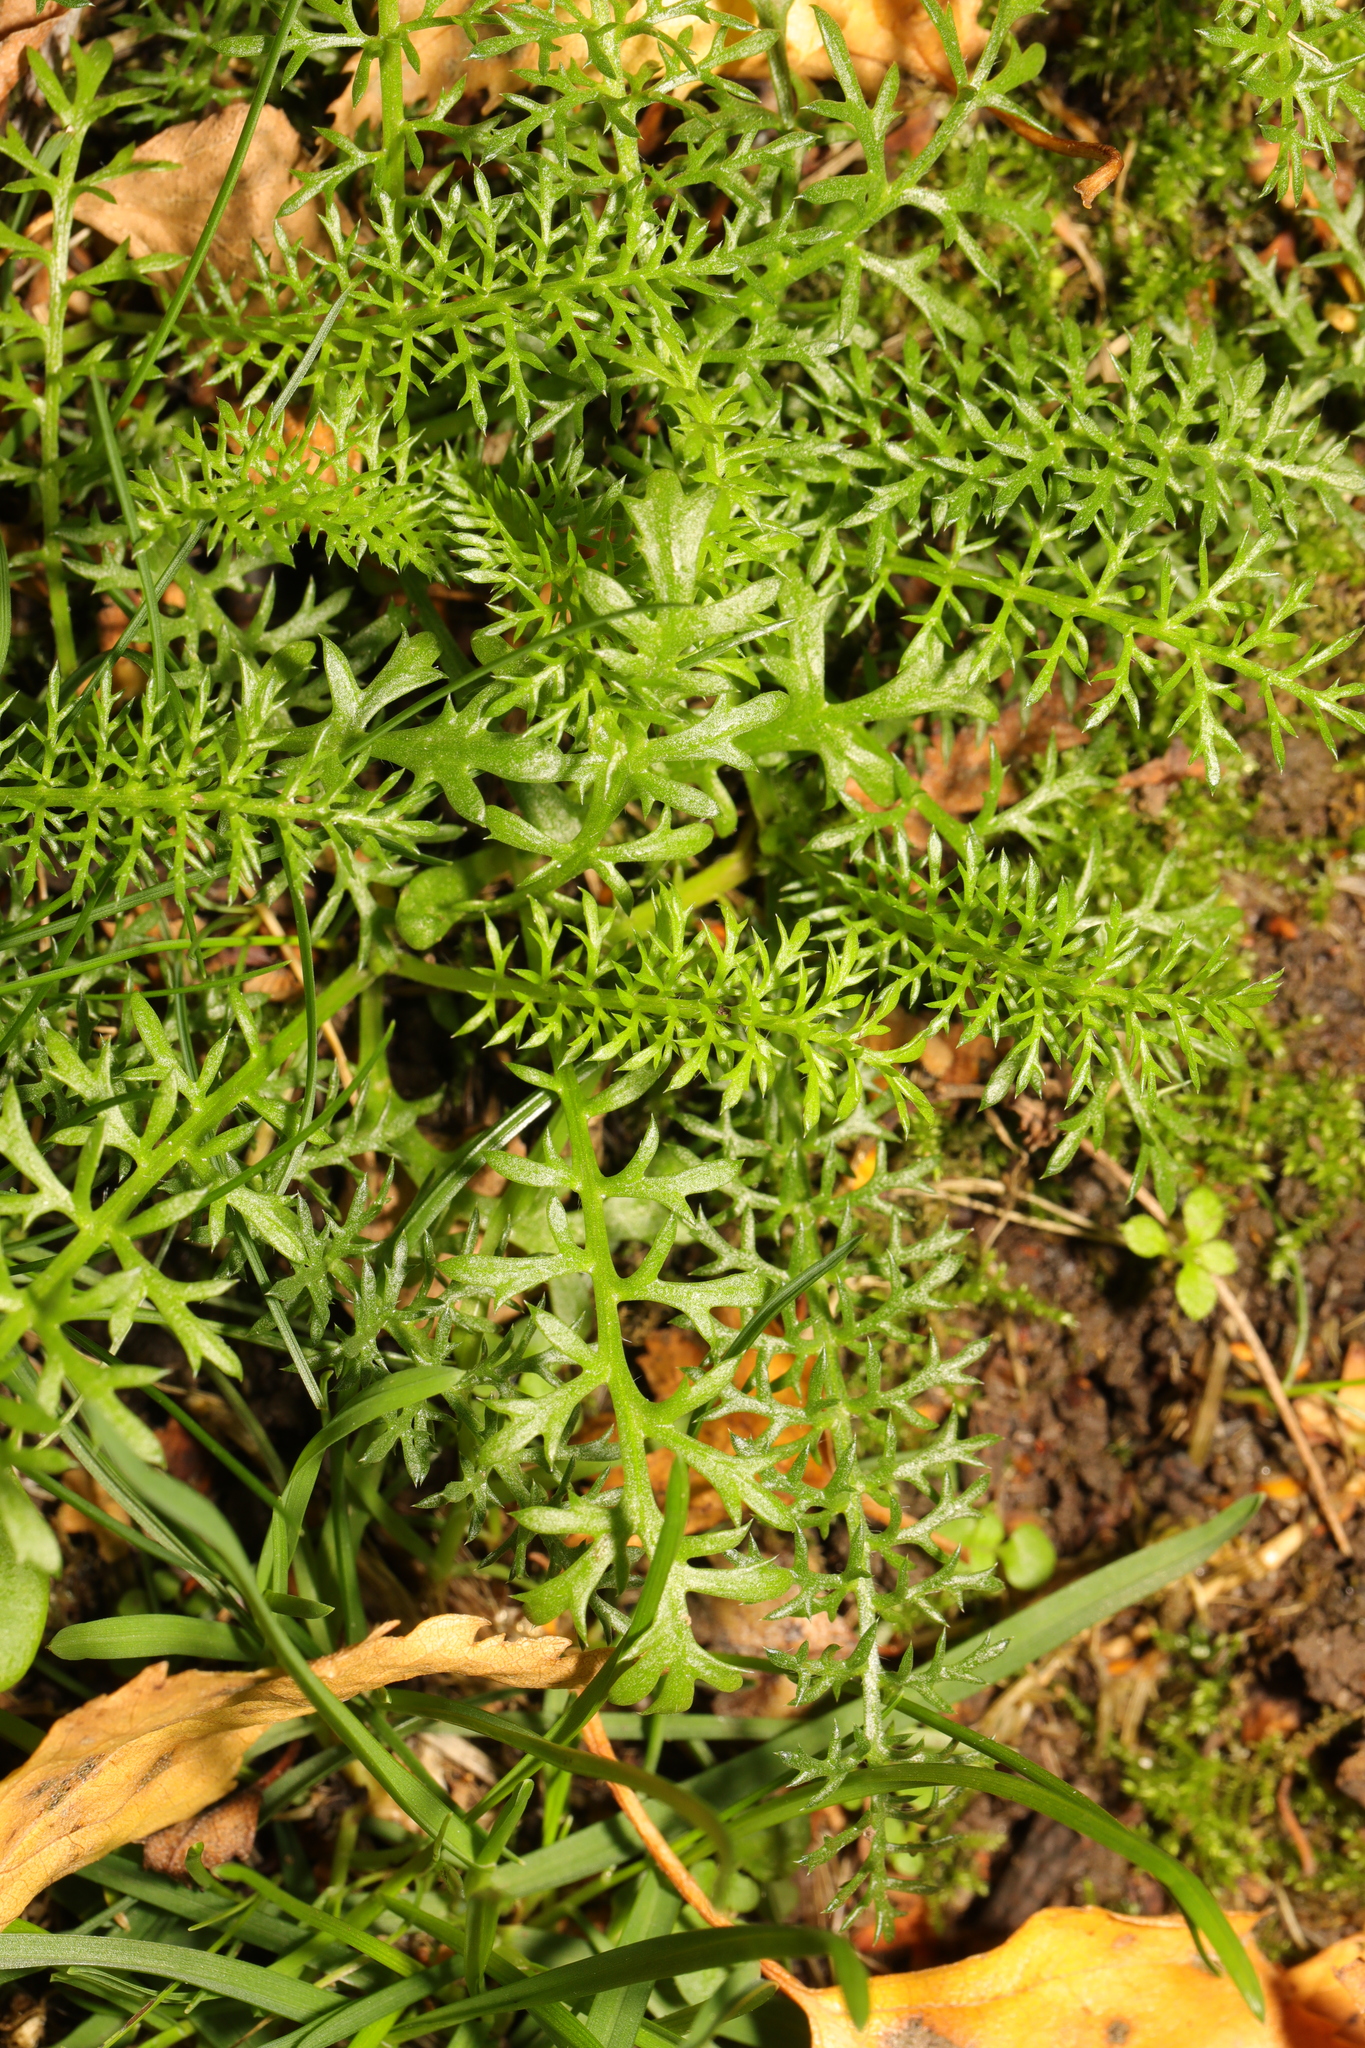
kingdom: Plantae
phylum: Tracheophyta
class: Magnoliopsida
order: Asterales
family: Asteraceae
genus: Achillea
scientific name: Achillea millefolium
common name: Yarrow
